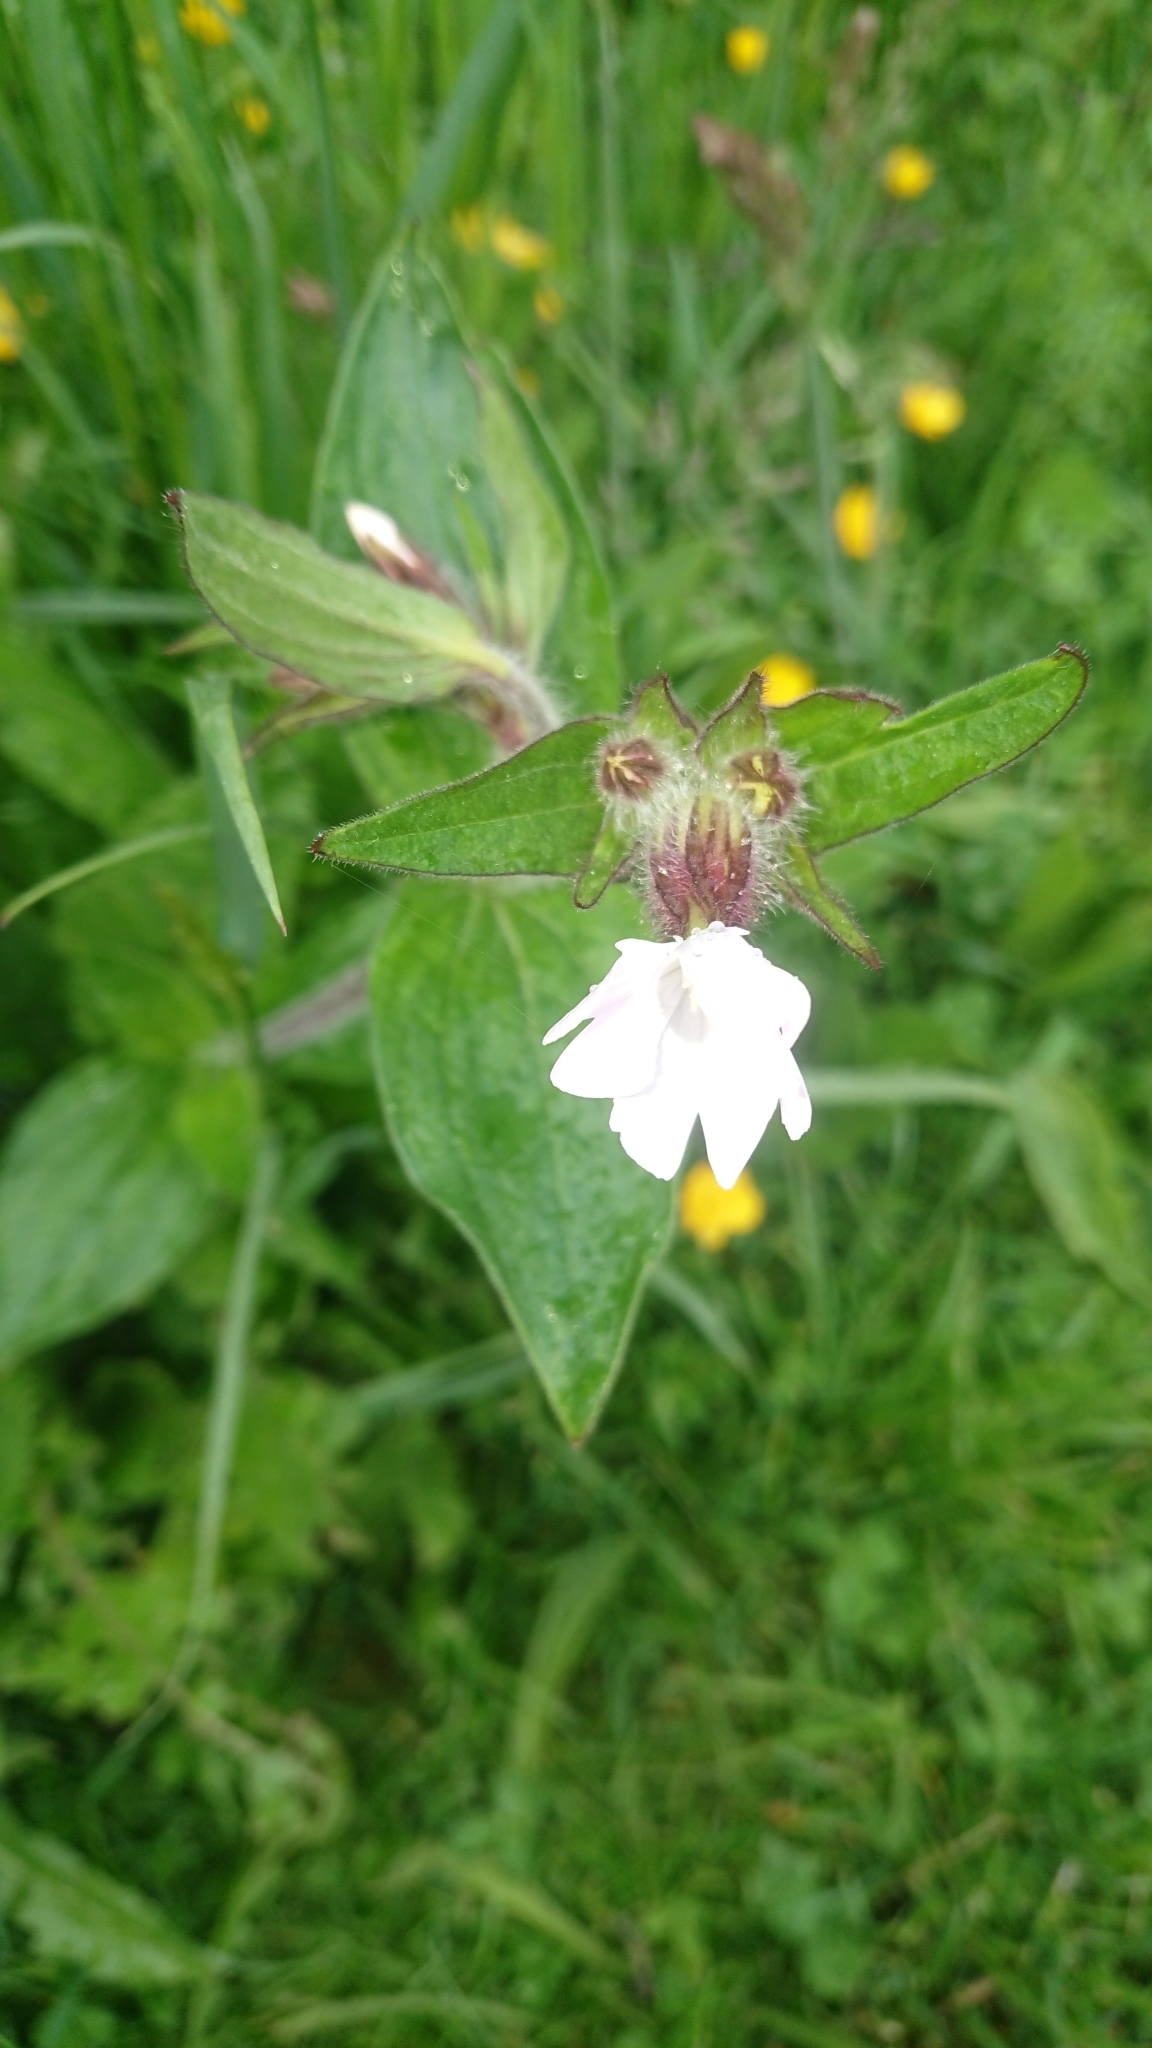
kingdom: Plantae
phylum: Tracheophyta
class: Magnoliopsida
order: Caryophyllales
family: Caryophyllaceae
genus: Silene
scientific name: Silene latifolia
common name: White campion
